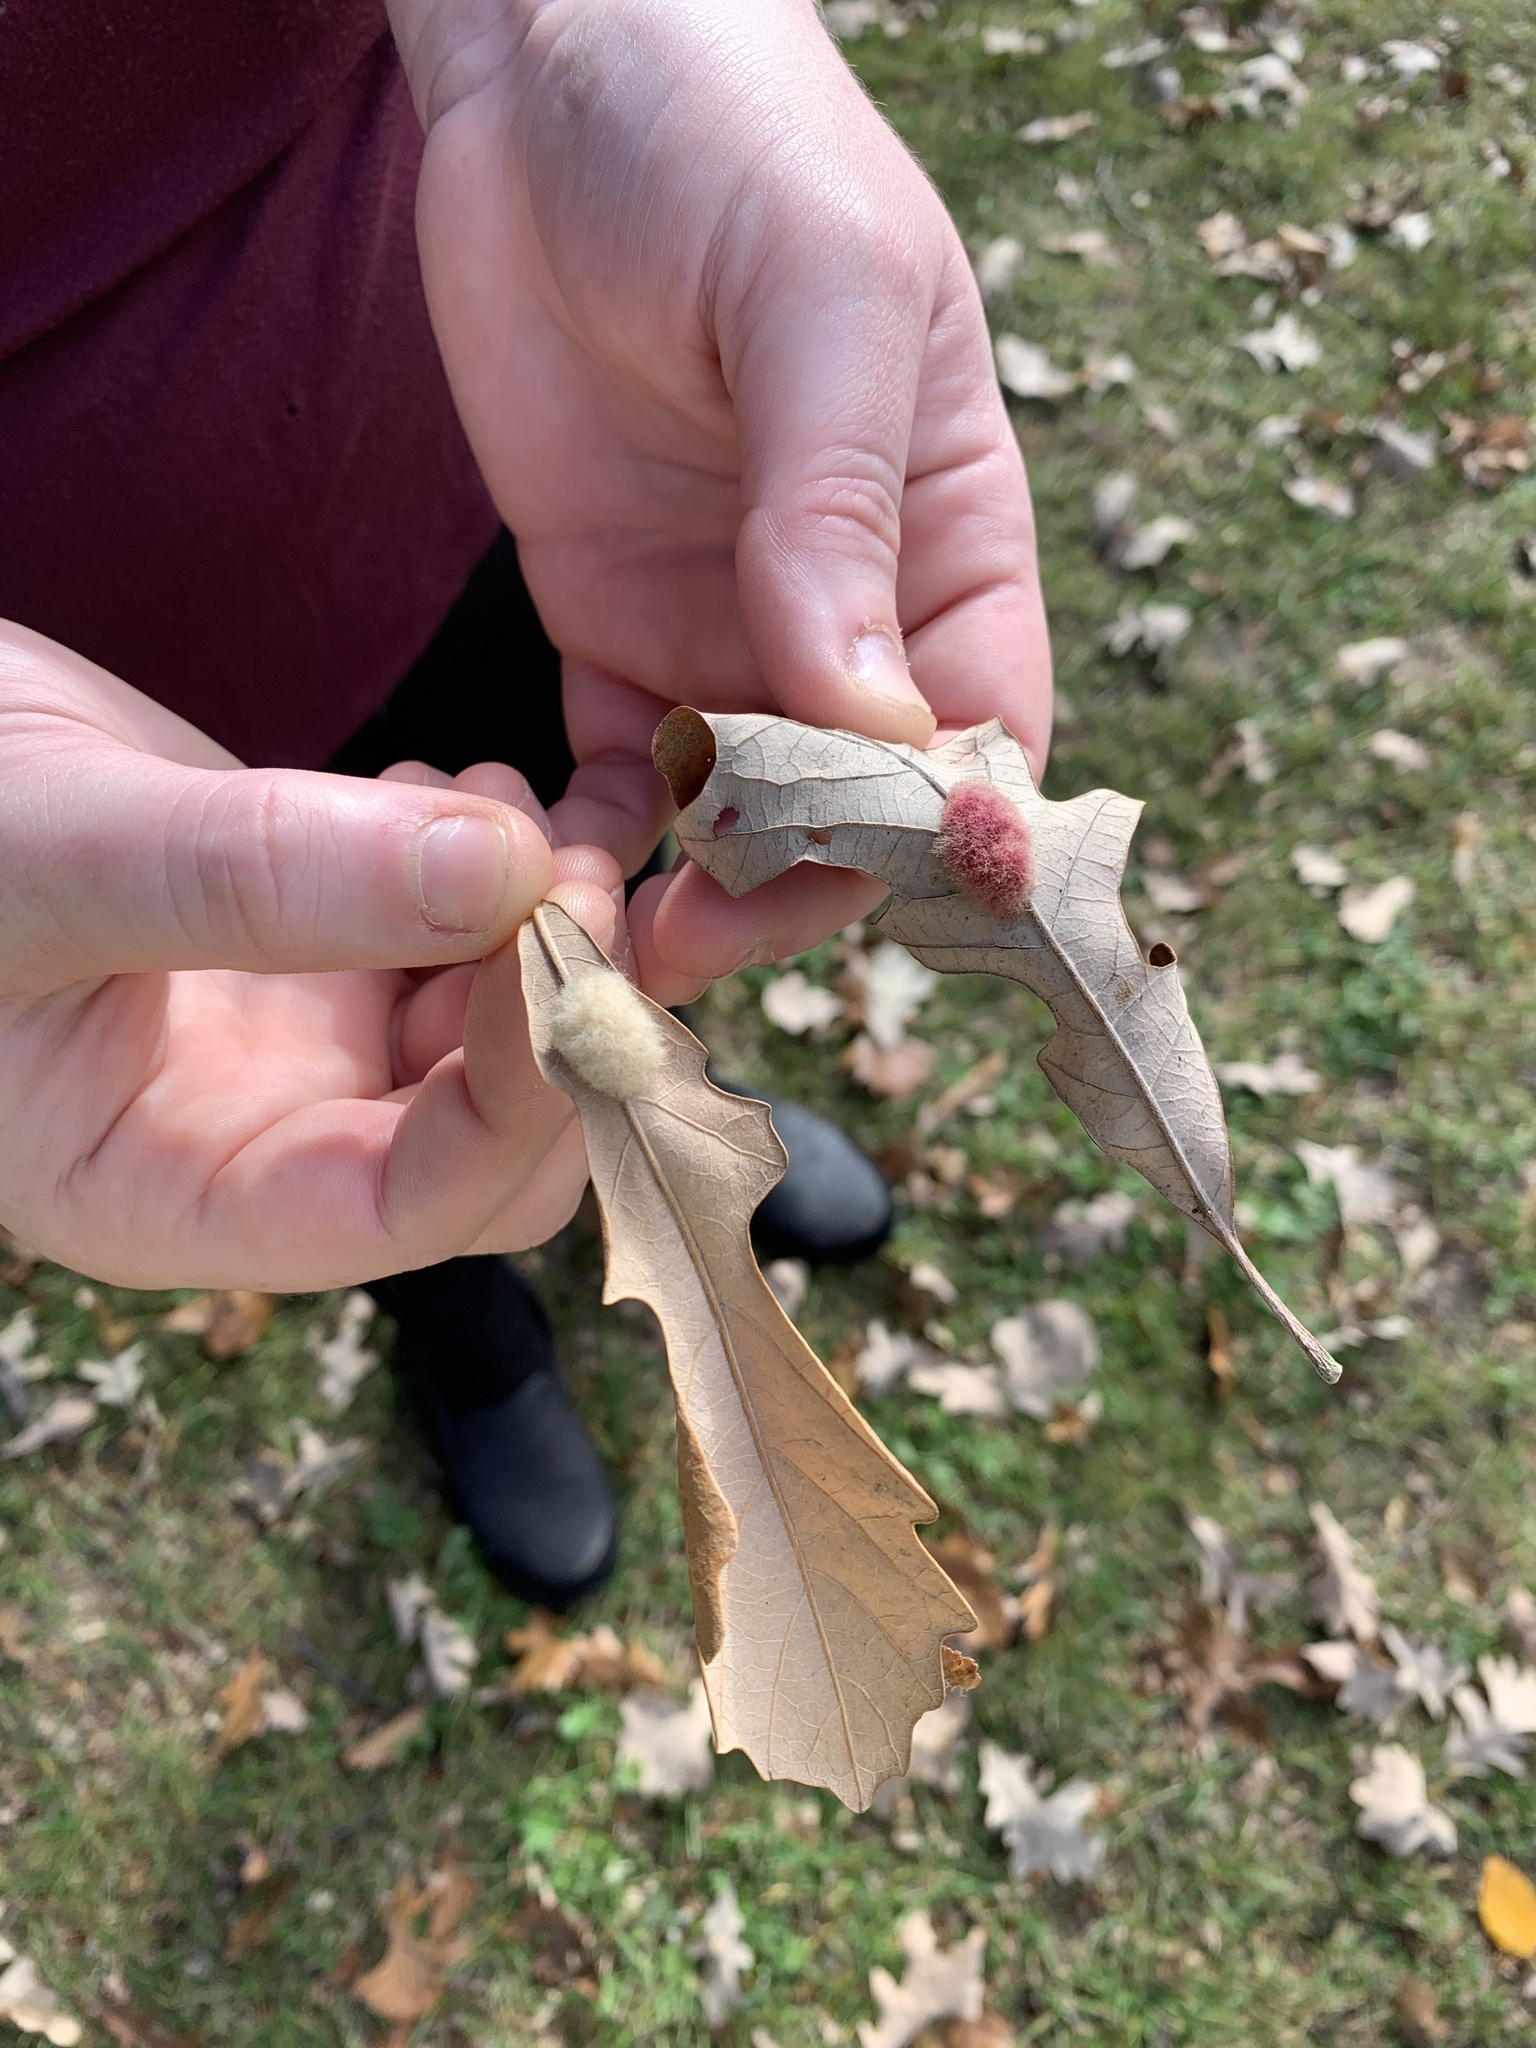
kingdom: Animalia
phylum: Arthropoda
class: Insecta
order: Hymenoptera
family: Cynipidae
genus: Andricus
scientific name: Andricus Druon ignotum
